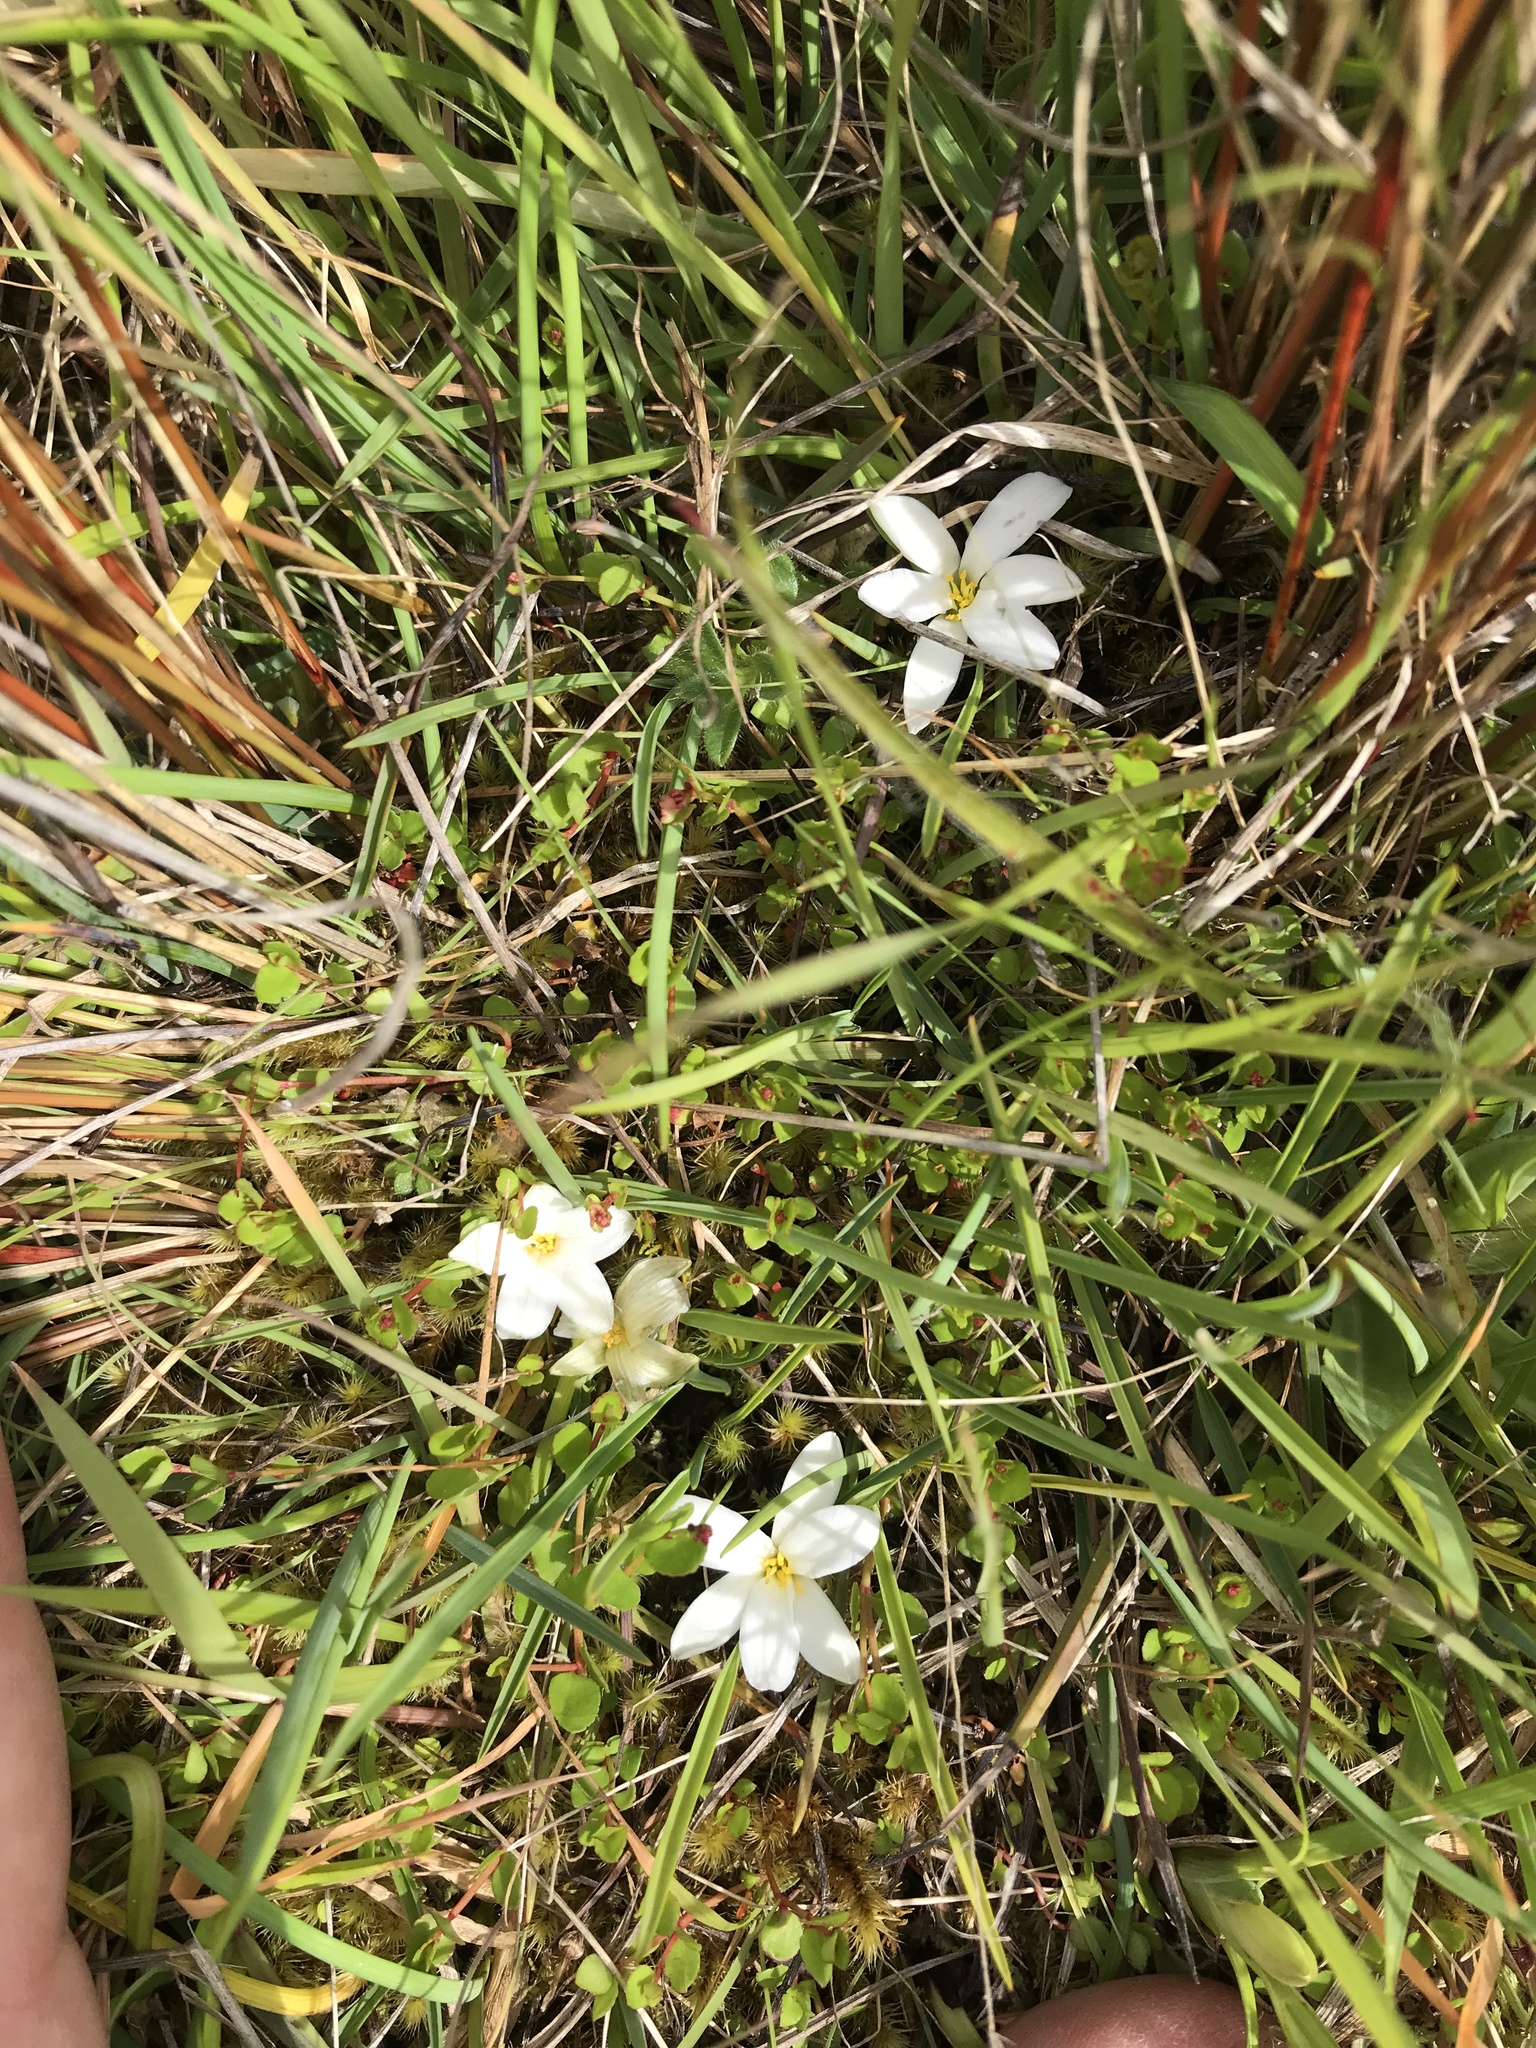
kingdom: Plantae
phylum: Tracheophyta
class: Liliopsida
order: Asparagales
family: Asphodelaceae
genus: Herpolirion
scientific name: Herpolirion novae-zelandiae
